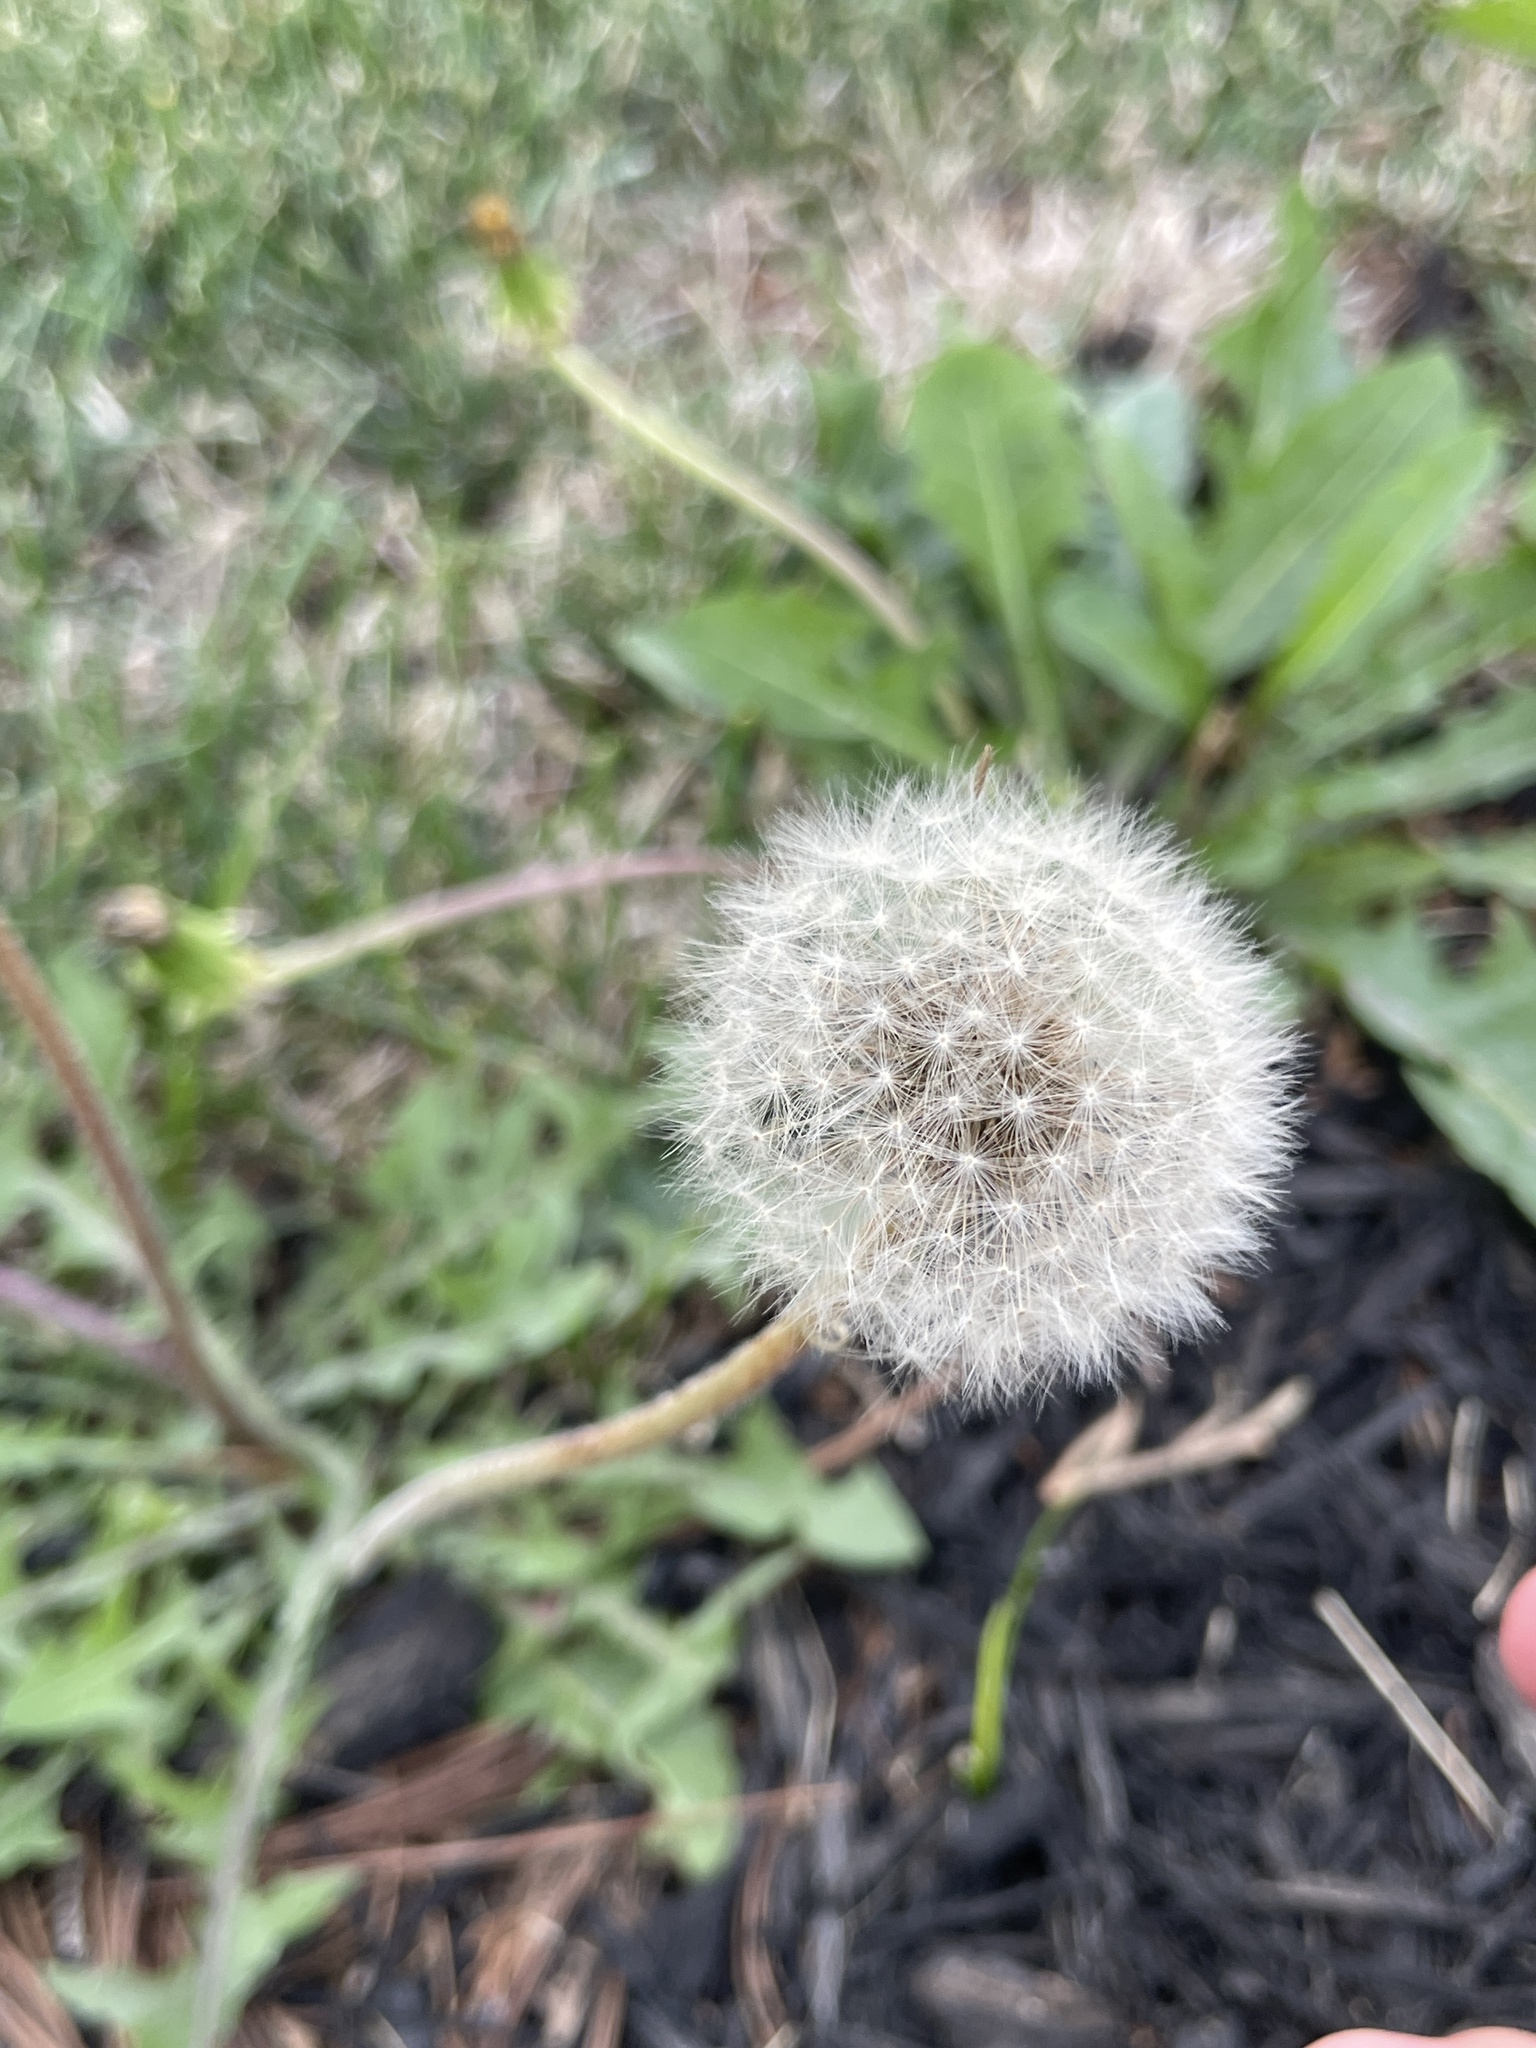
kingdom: Plantae
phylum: Tracheophyta
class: Magnoliopsida
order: Asterales
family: Asteraceae
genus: Taraxacum
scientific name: Taraxacum officinale
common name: Common dandelion
